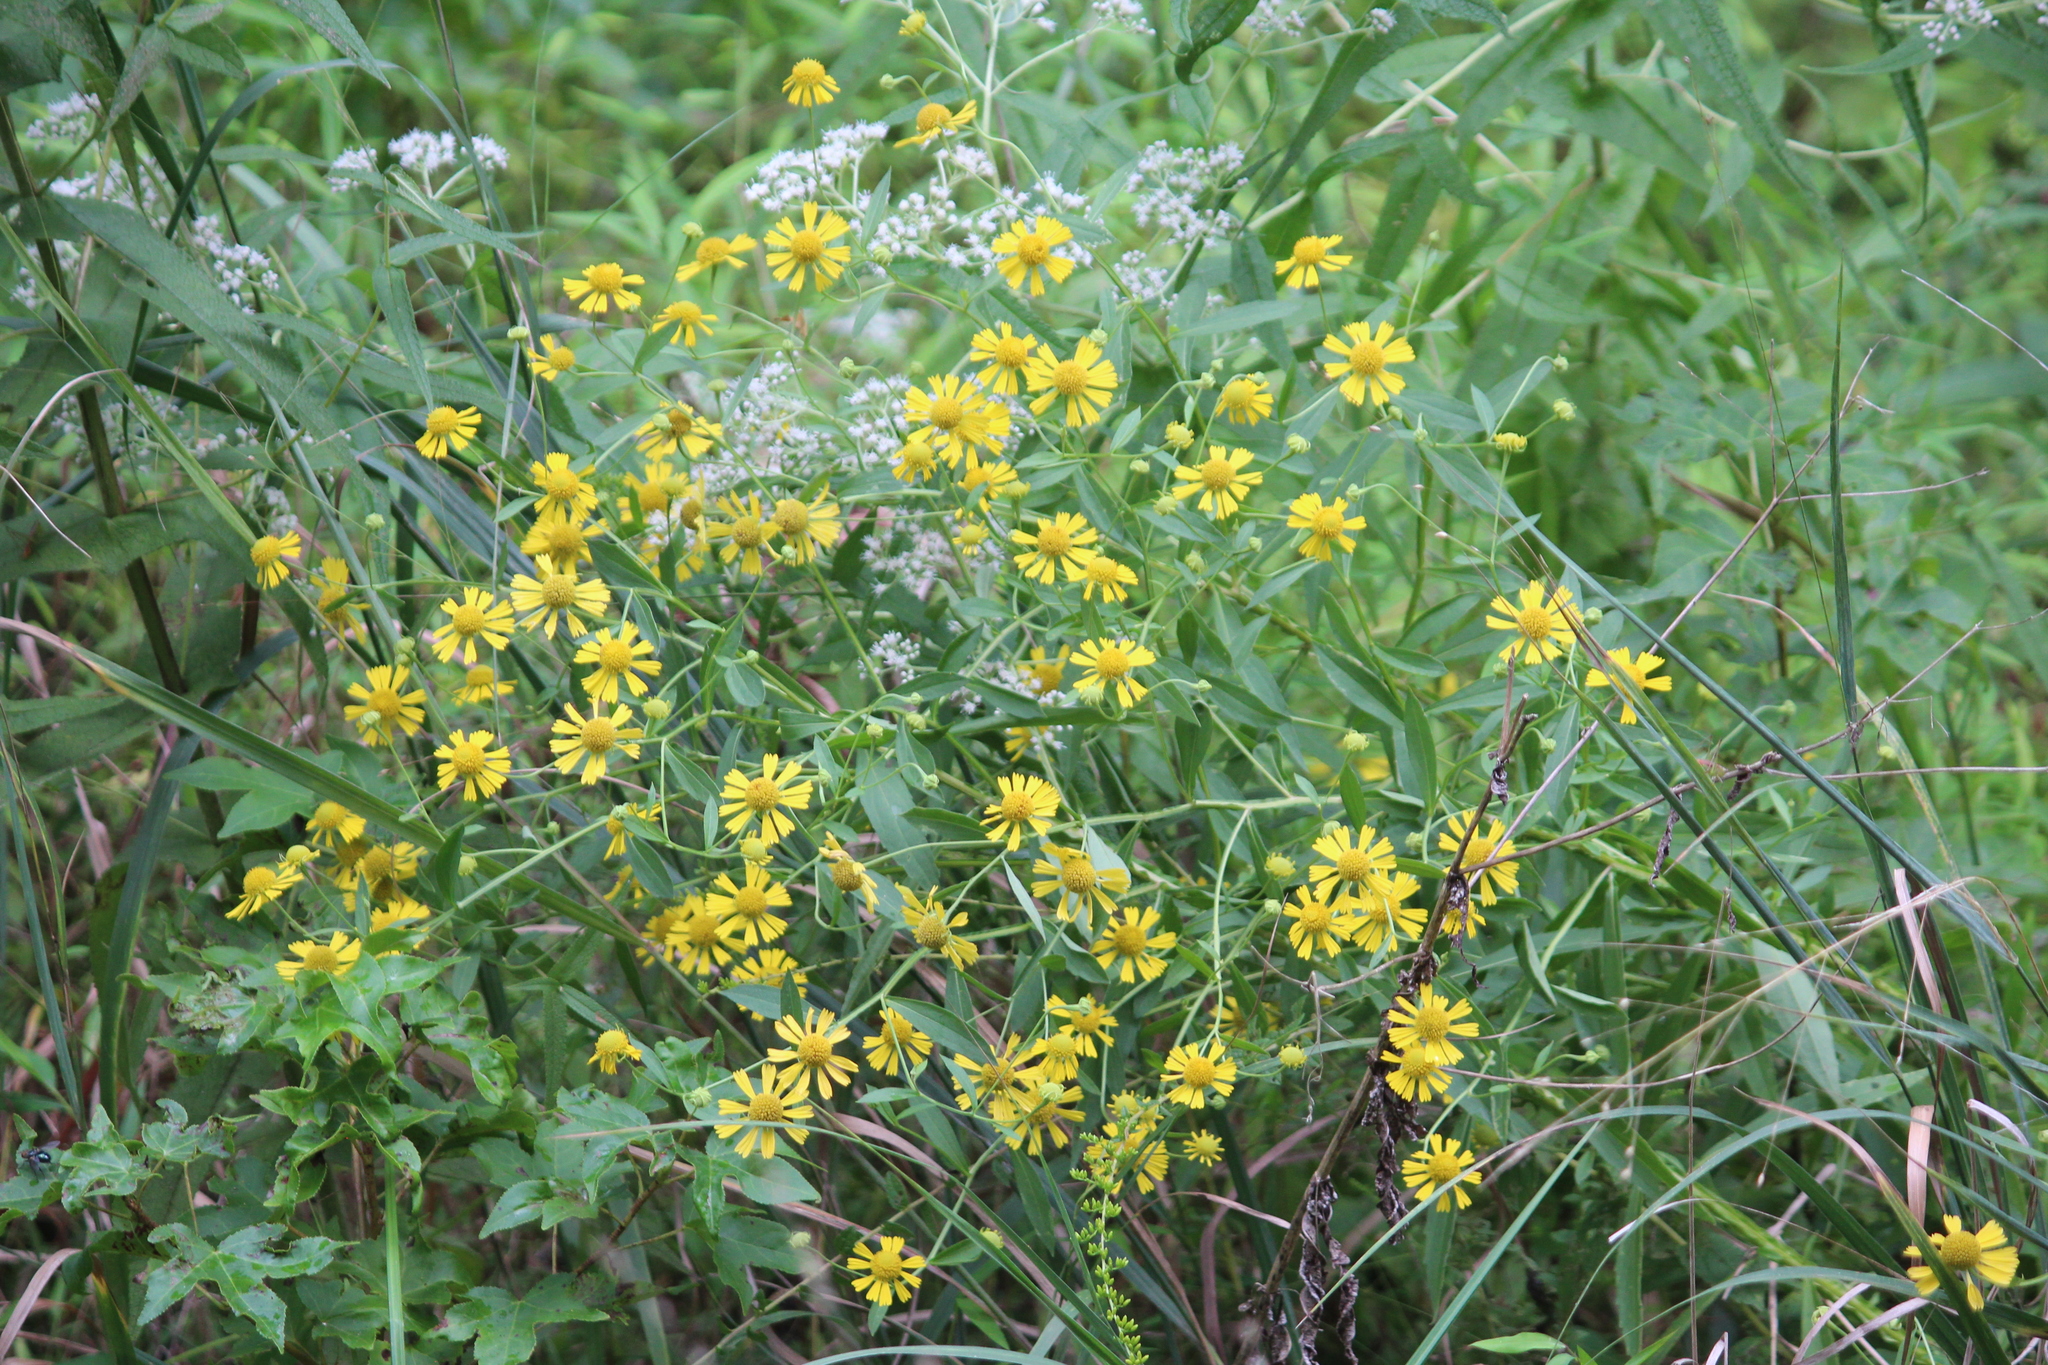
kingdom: Plantae
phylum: Tracheophyta
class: Magnoliopsida
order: Asterales
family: Asteraceae
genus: Helenium
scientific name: Helenium autumnale
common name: Sneezeweed
